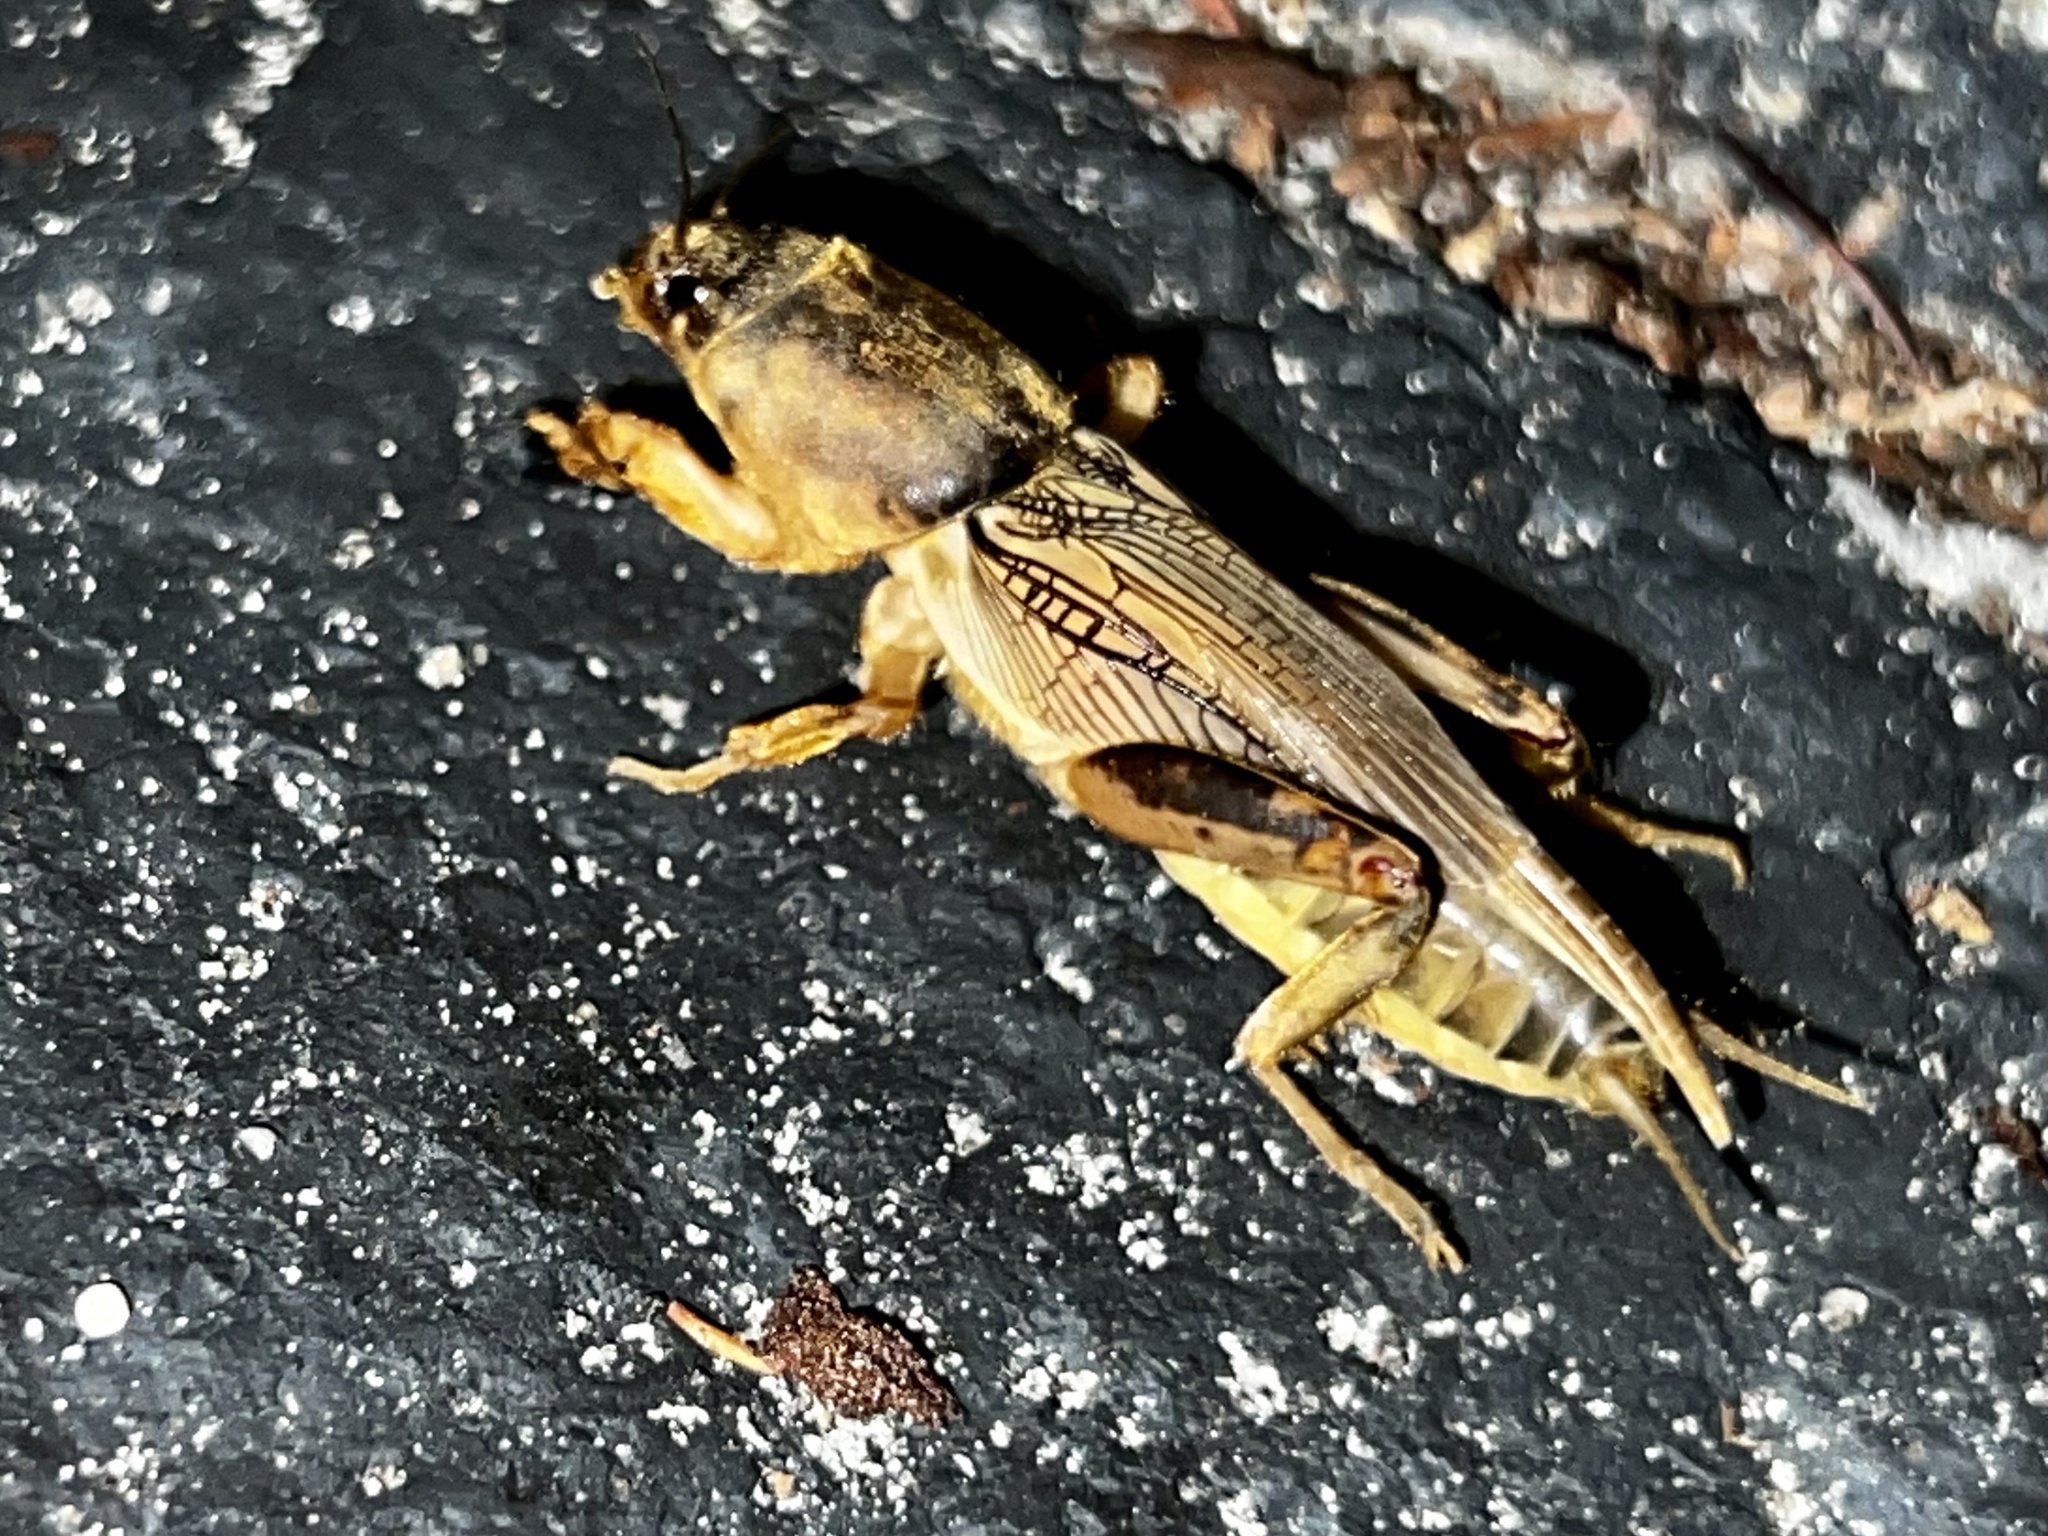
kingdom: Animalia
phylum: Arthropoda
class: Insecta
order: Orthoptera
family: Gryllotalpidae
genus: Neoscapteriscus
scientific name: Neoscapteriscus vicinus
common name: Tawny mole cricket
